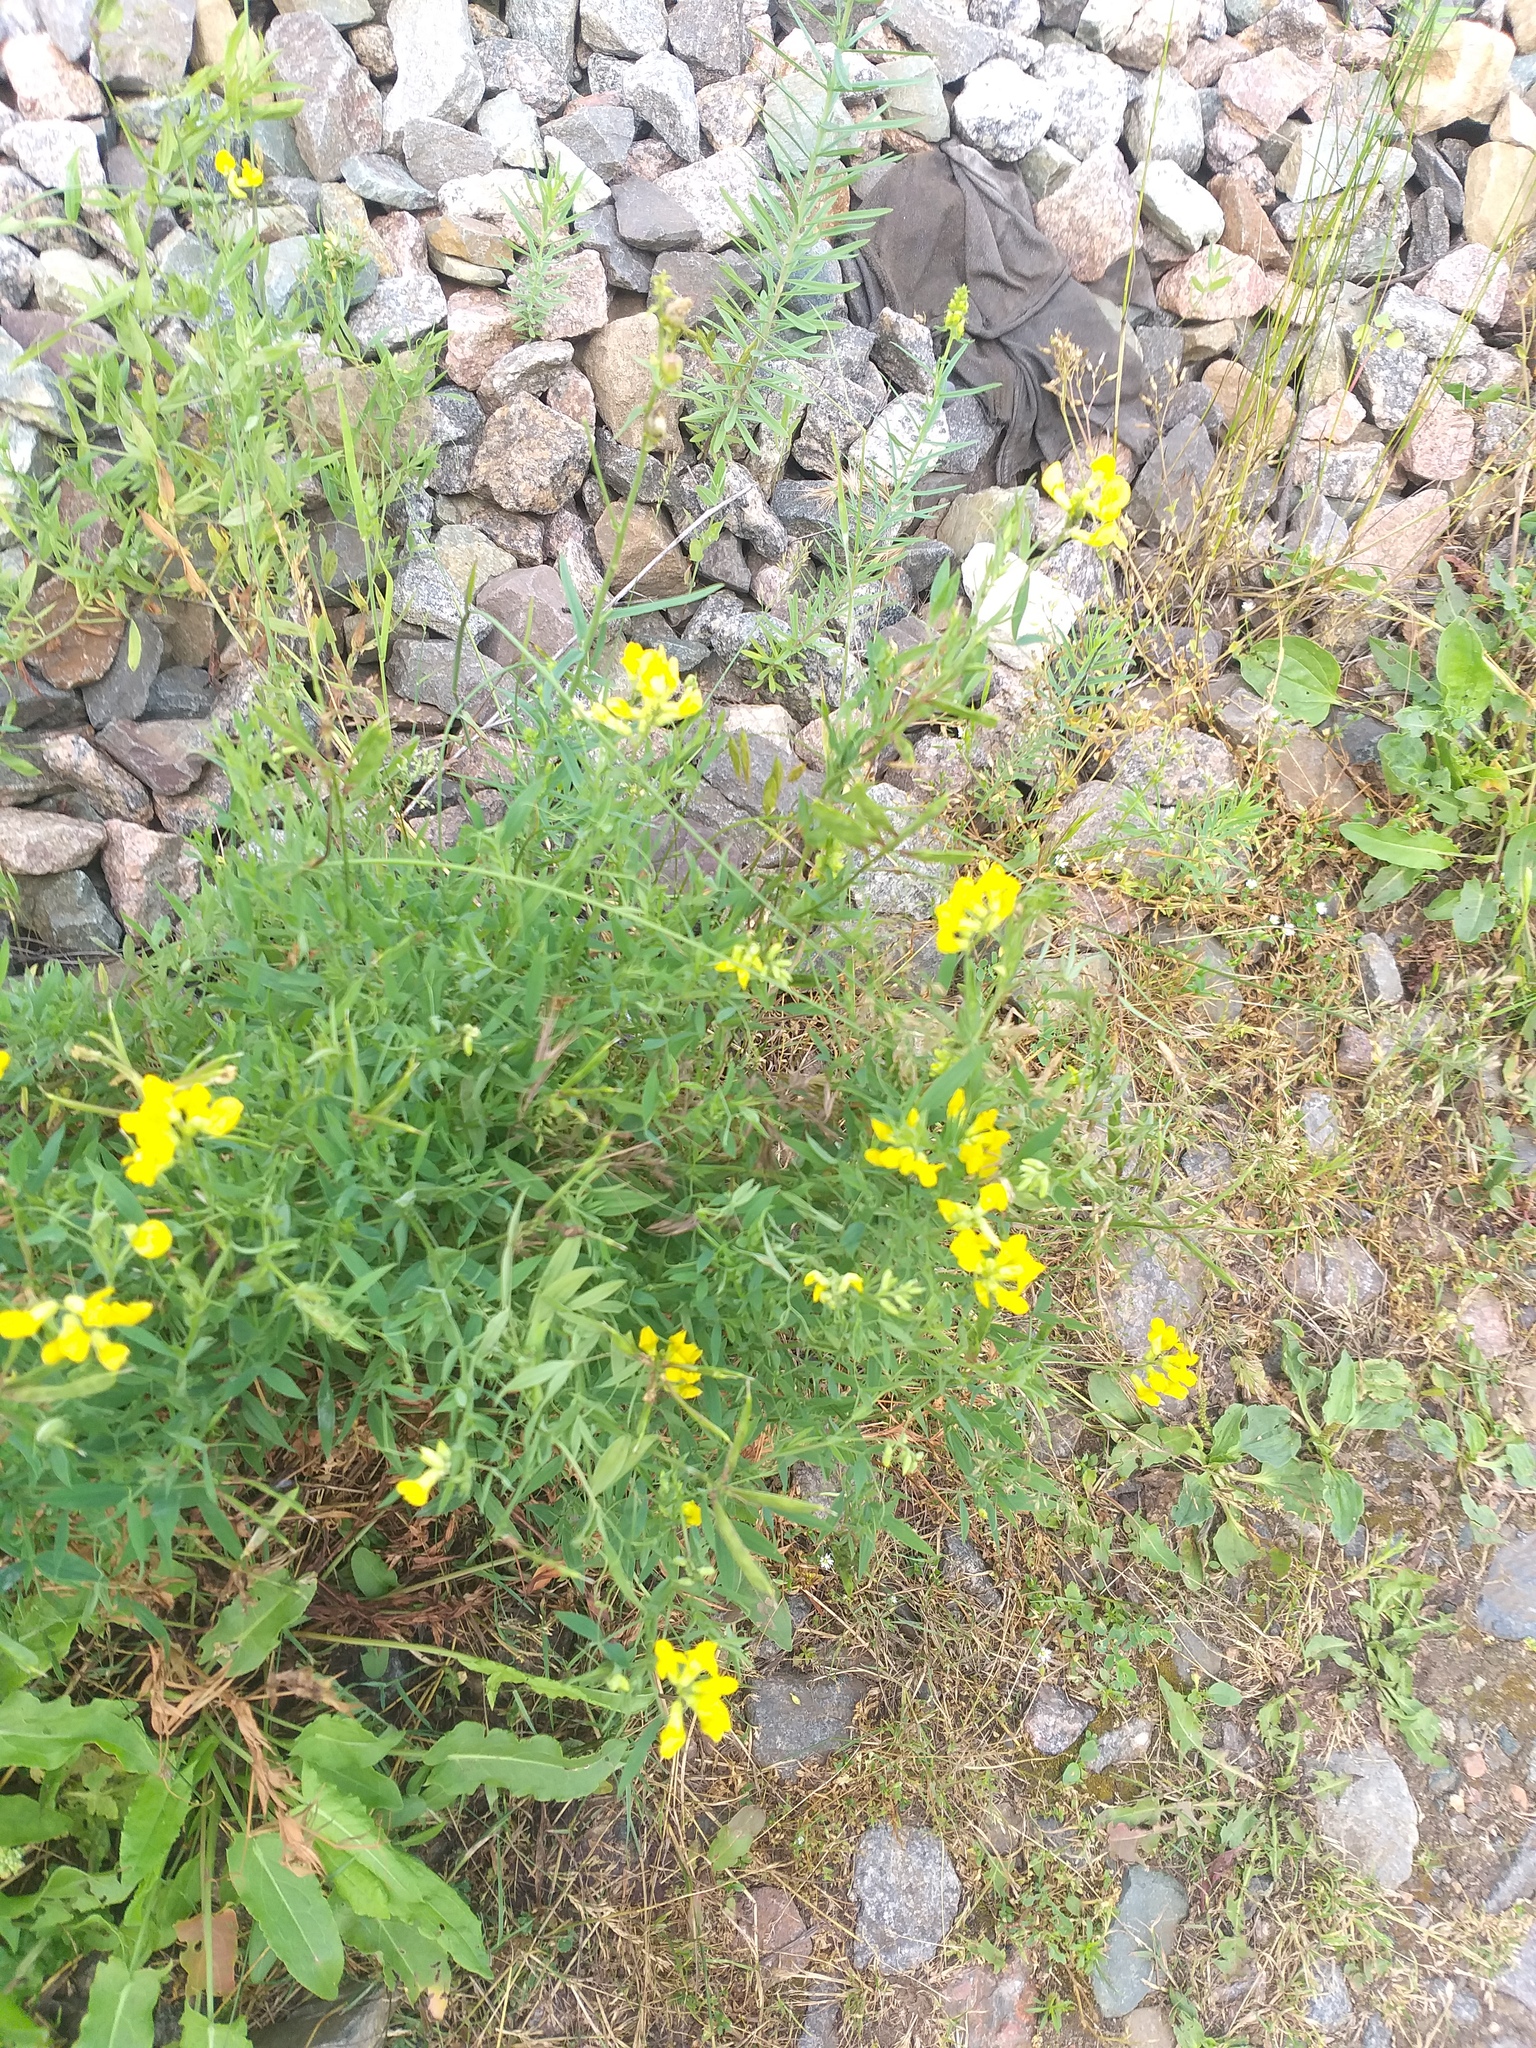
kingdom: Plantae
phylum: Tracheophyta
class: Magnoliopsida
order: Fabales
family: Fabaceae
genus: Lathyrus
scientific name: Lathyrus pratensis
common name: Meadow vetchling
